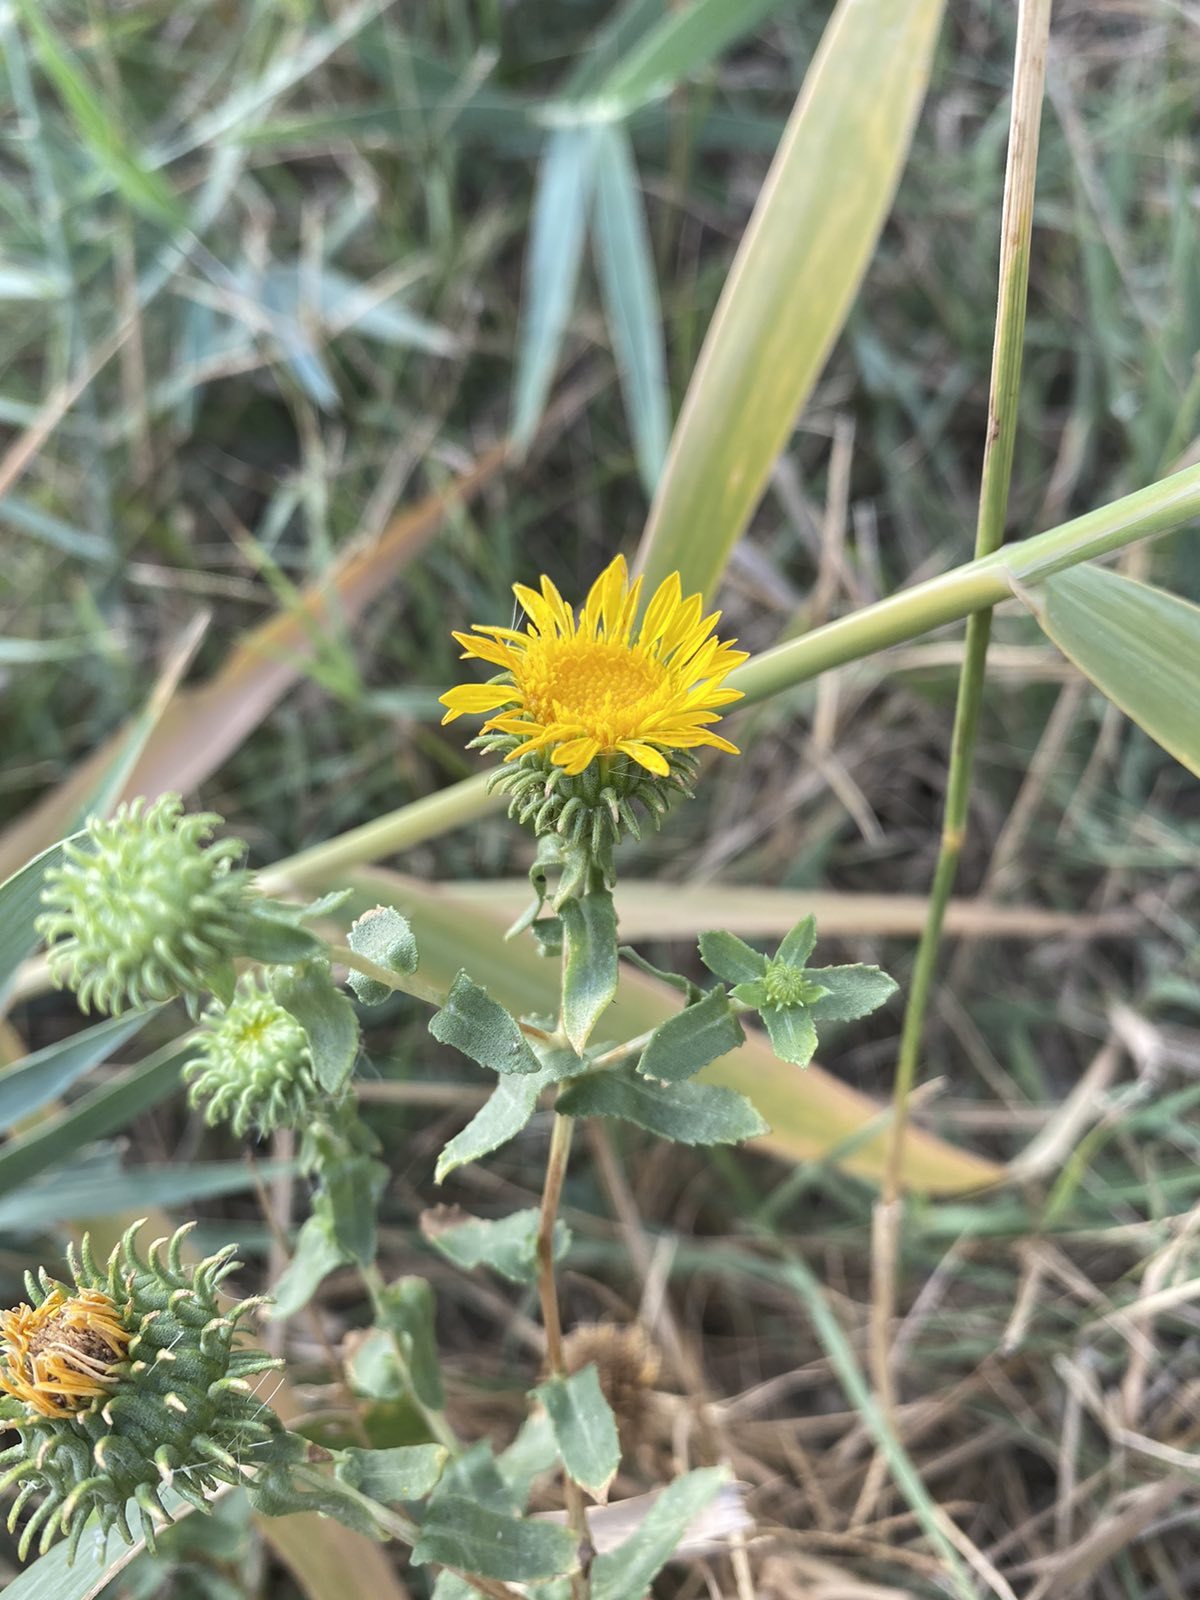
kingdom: Plantae
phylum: Tracheophyta
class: Magnoliopsida
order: Asterales
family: Asteraceae
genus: Grindelia
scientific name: Grindelia squarrosa
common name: Curly-cup gumweed
